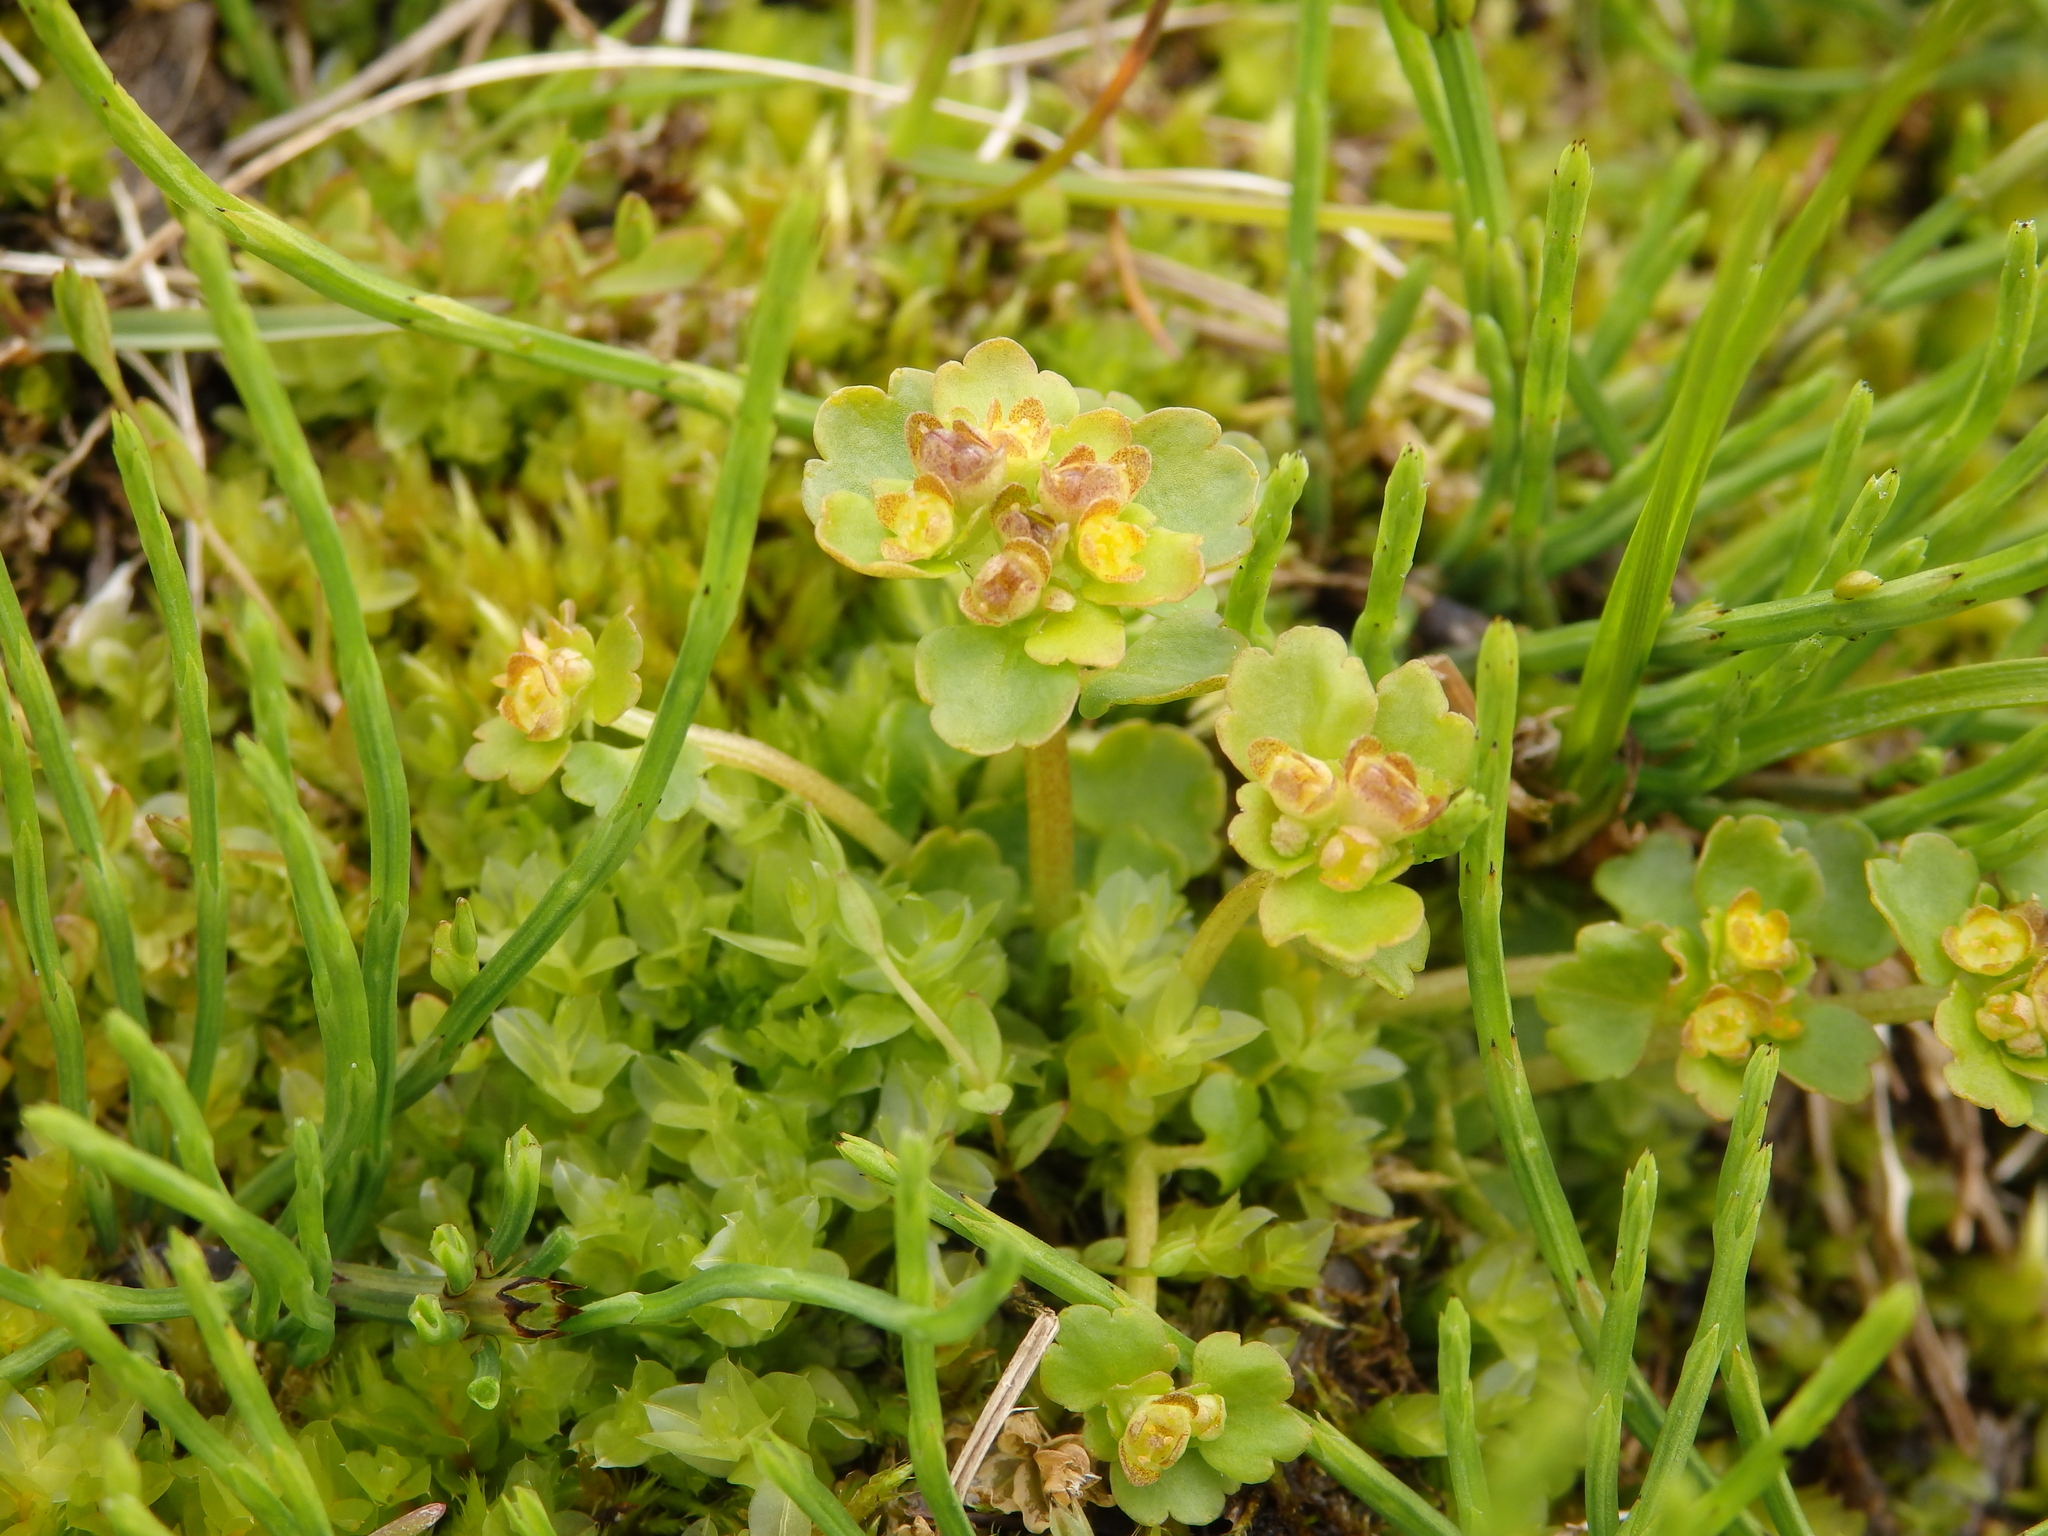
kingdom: Plantae
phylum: Tracheophyta
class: Magnoliopsida
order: Saxifragales
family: Saxifragaceae
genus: Chrysosplenium
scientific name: Chrysosplenium wrightii
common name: Wright's golden carpet
